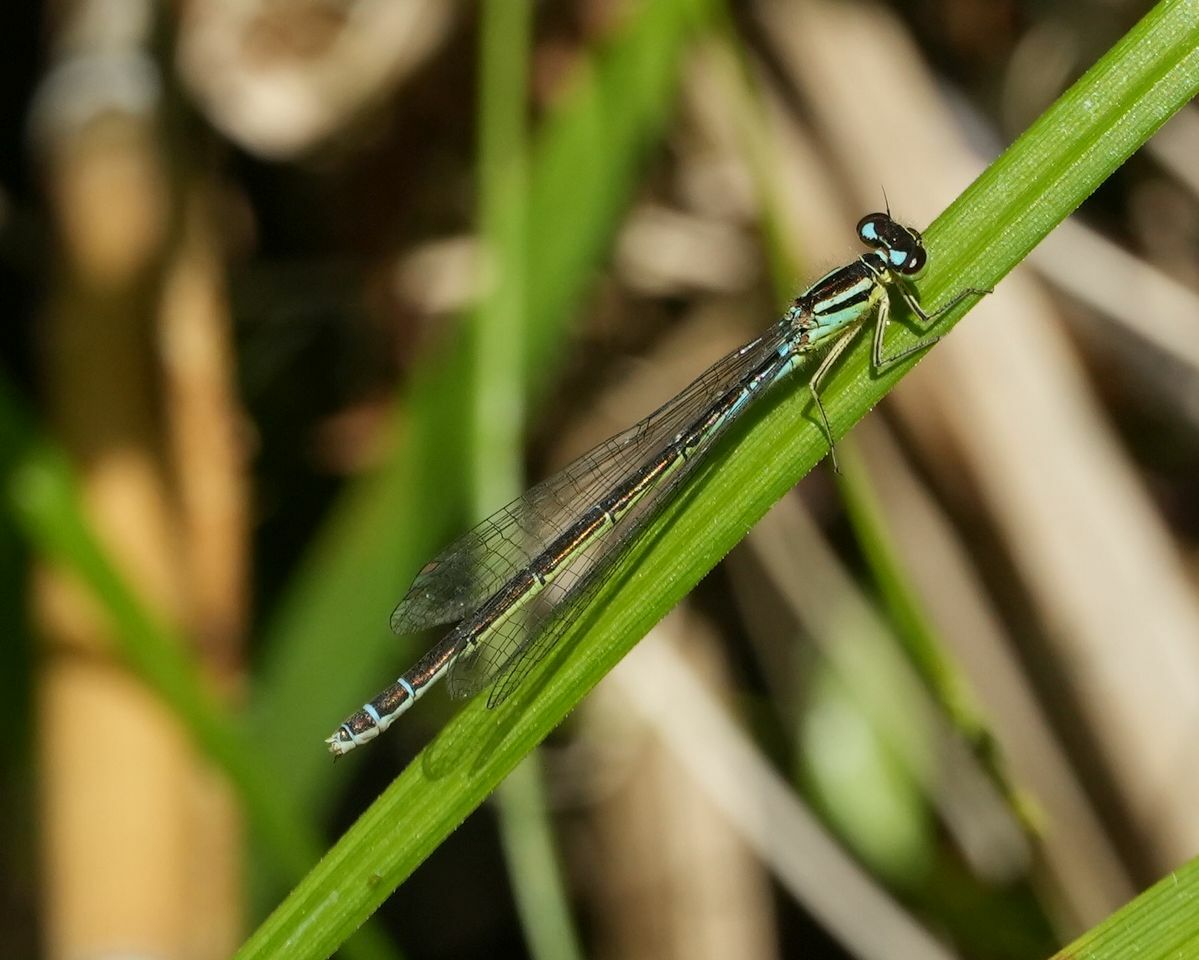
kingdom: Animalia
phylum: Arthropoda
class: Insecta
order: Odonata
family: Coenagrionidae
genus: Coenagrion
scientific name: Coenagrion resolutum
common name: Taiga bluet
